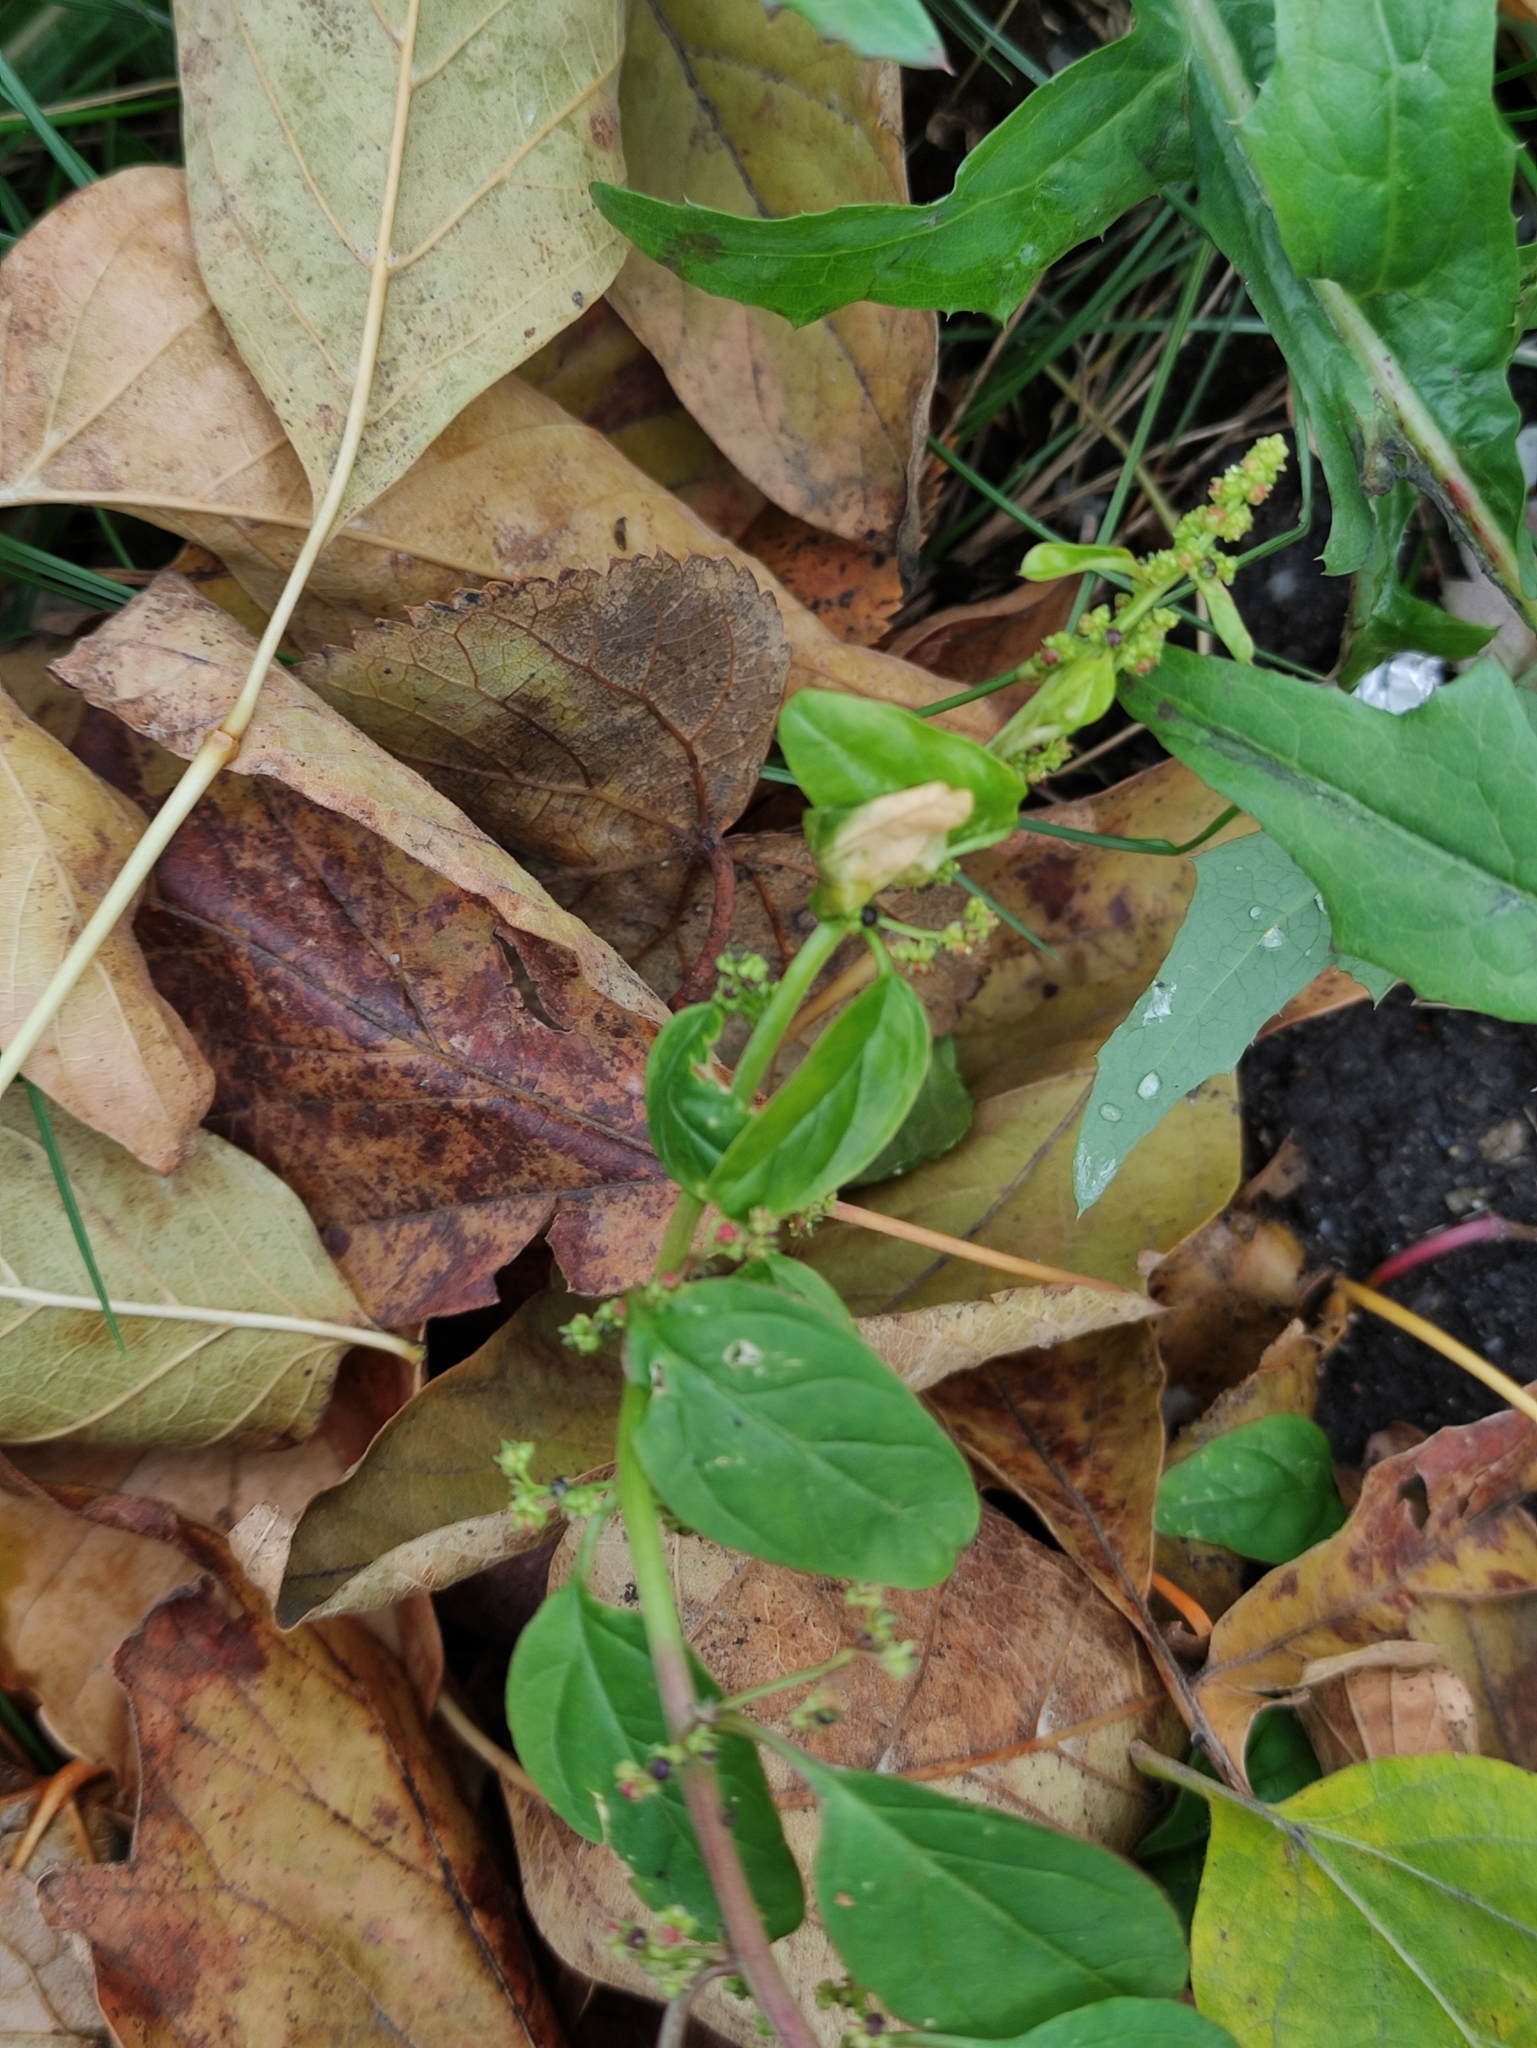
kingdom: Plantae
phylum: Tracheophyta
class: Magnoliopsida
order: Caryophyllales
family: Amaranthaceae
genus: Lipandra
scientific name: Lipandra polysperma
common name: Many-seed goosefoot
